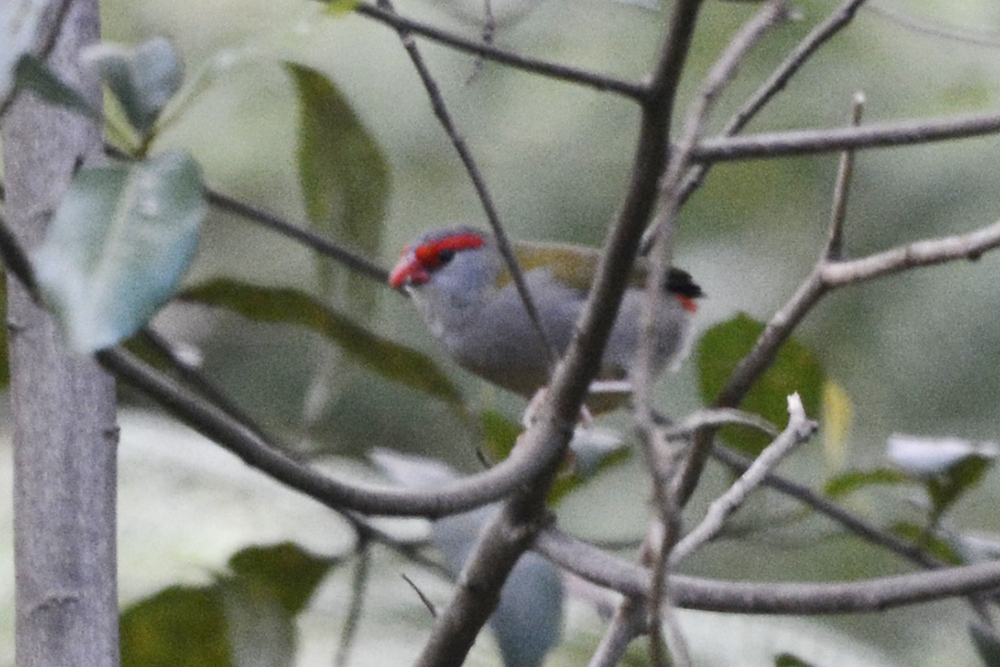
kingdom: Animalia
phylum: Chordata
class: Aves
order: Passeriformes
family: Estrildidae
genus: Neochmia
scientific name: Neochmia temporalis
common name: Red-browed finch
